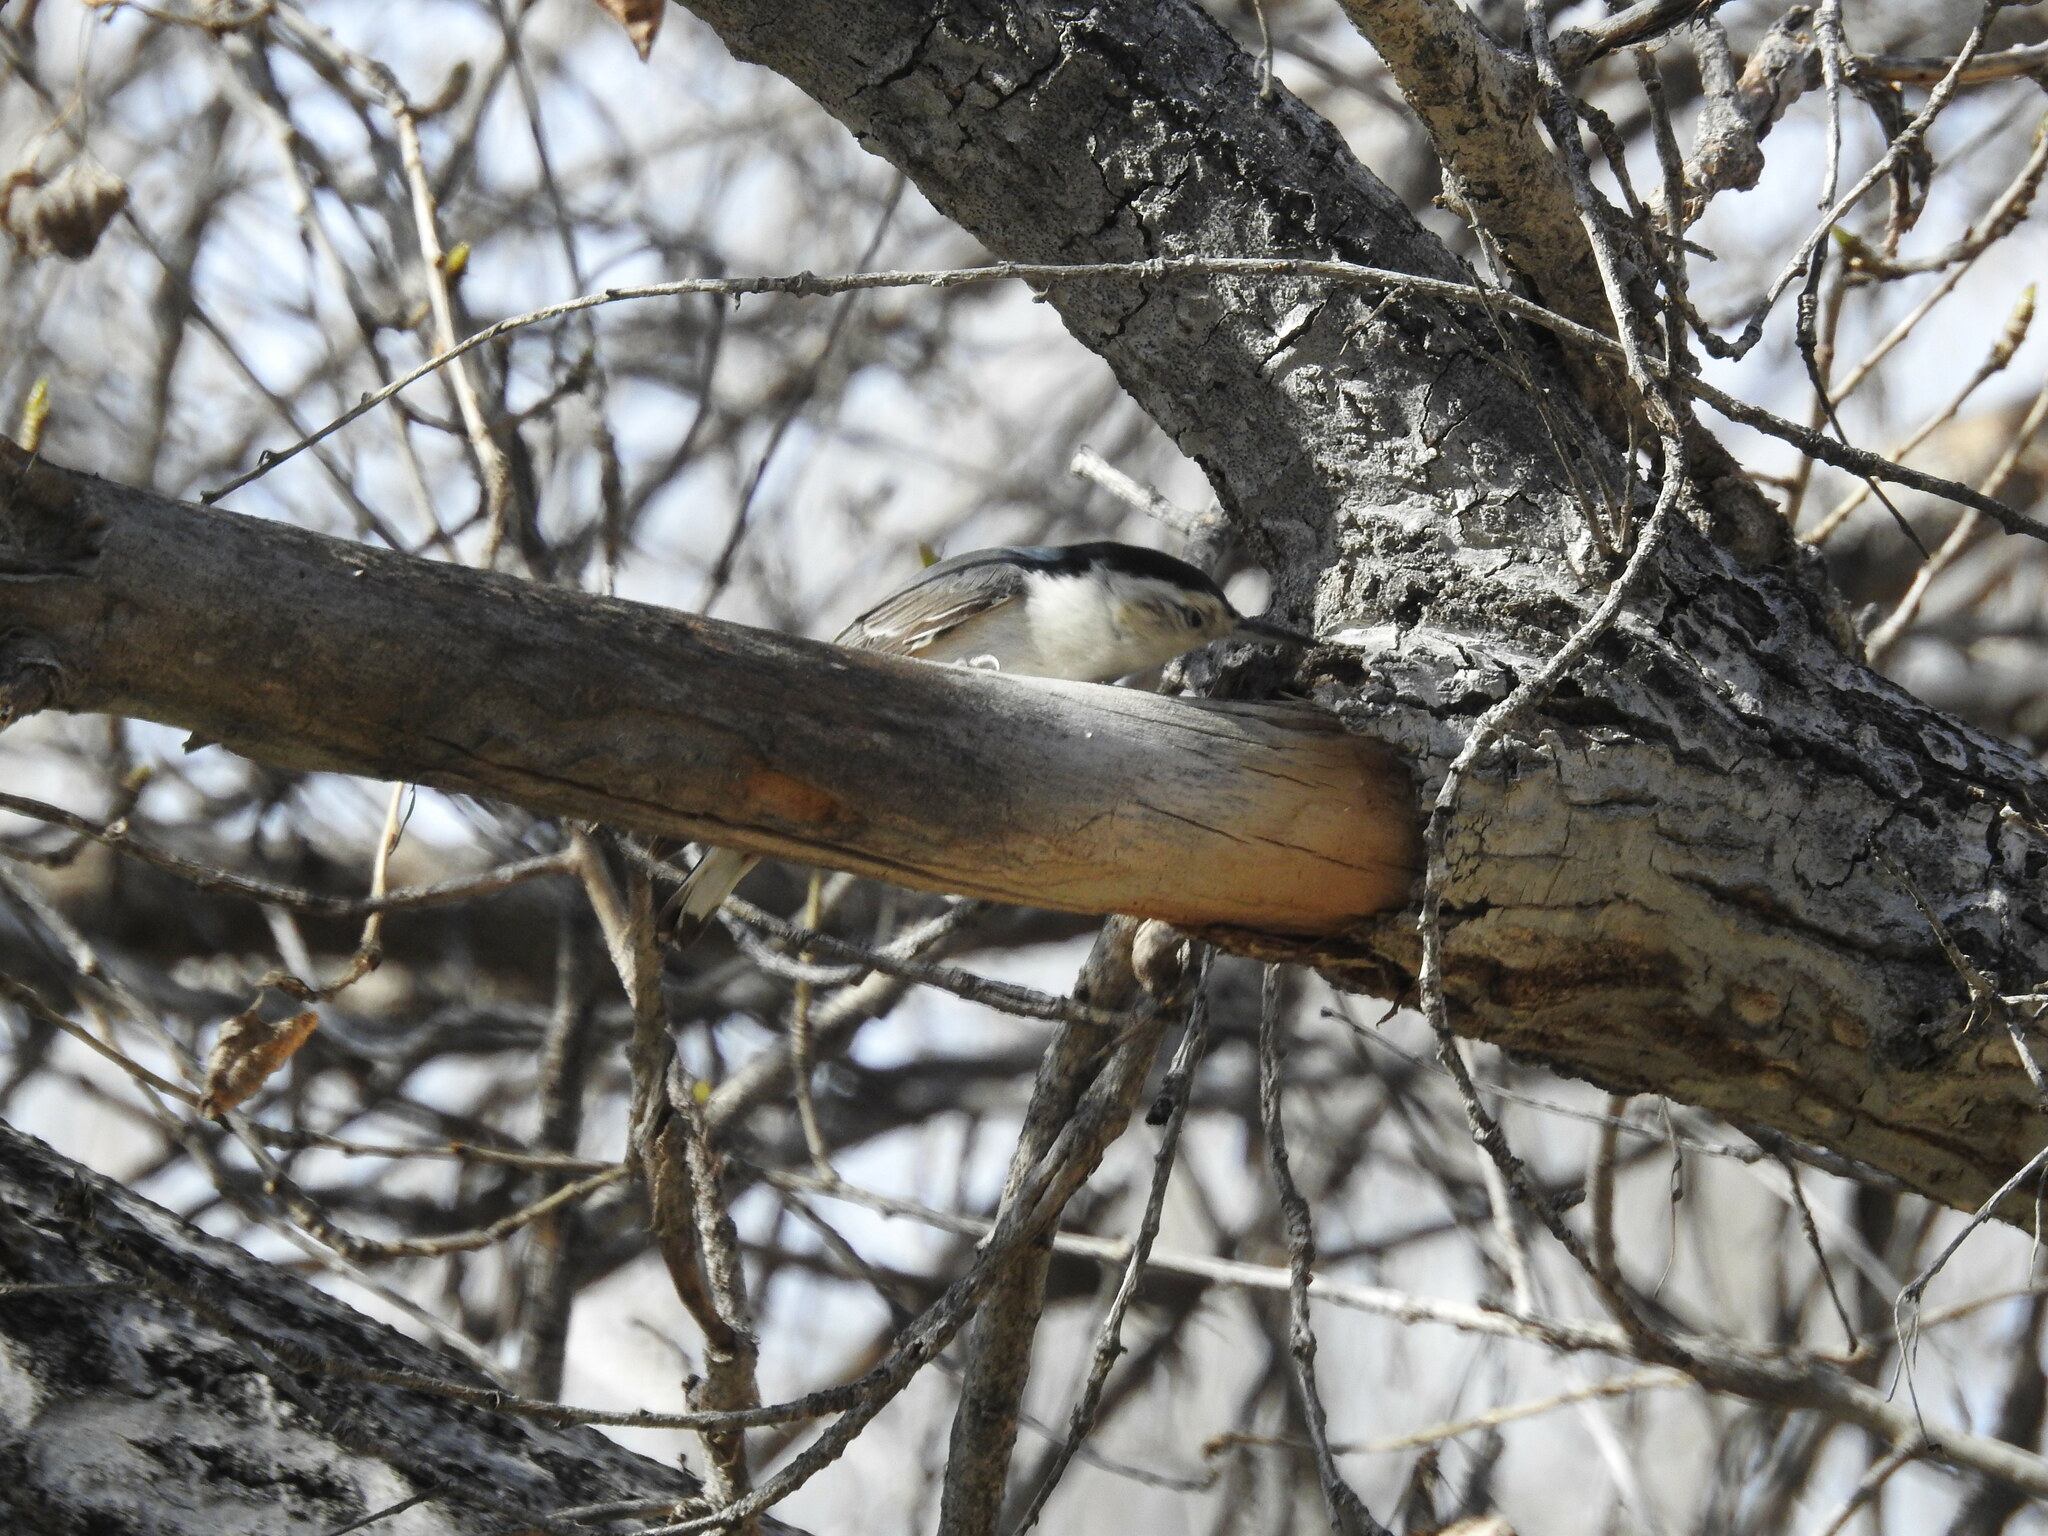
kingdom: Animalia
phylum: Chordata
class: Aves
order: Passeriformes
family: Sittidae
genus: Sitta
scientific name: Sitta carolinensis
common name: White-breasted nuthatch
